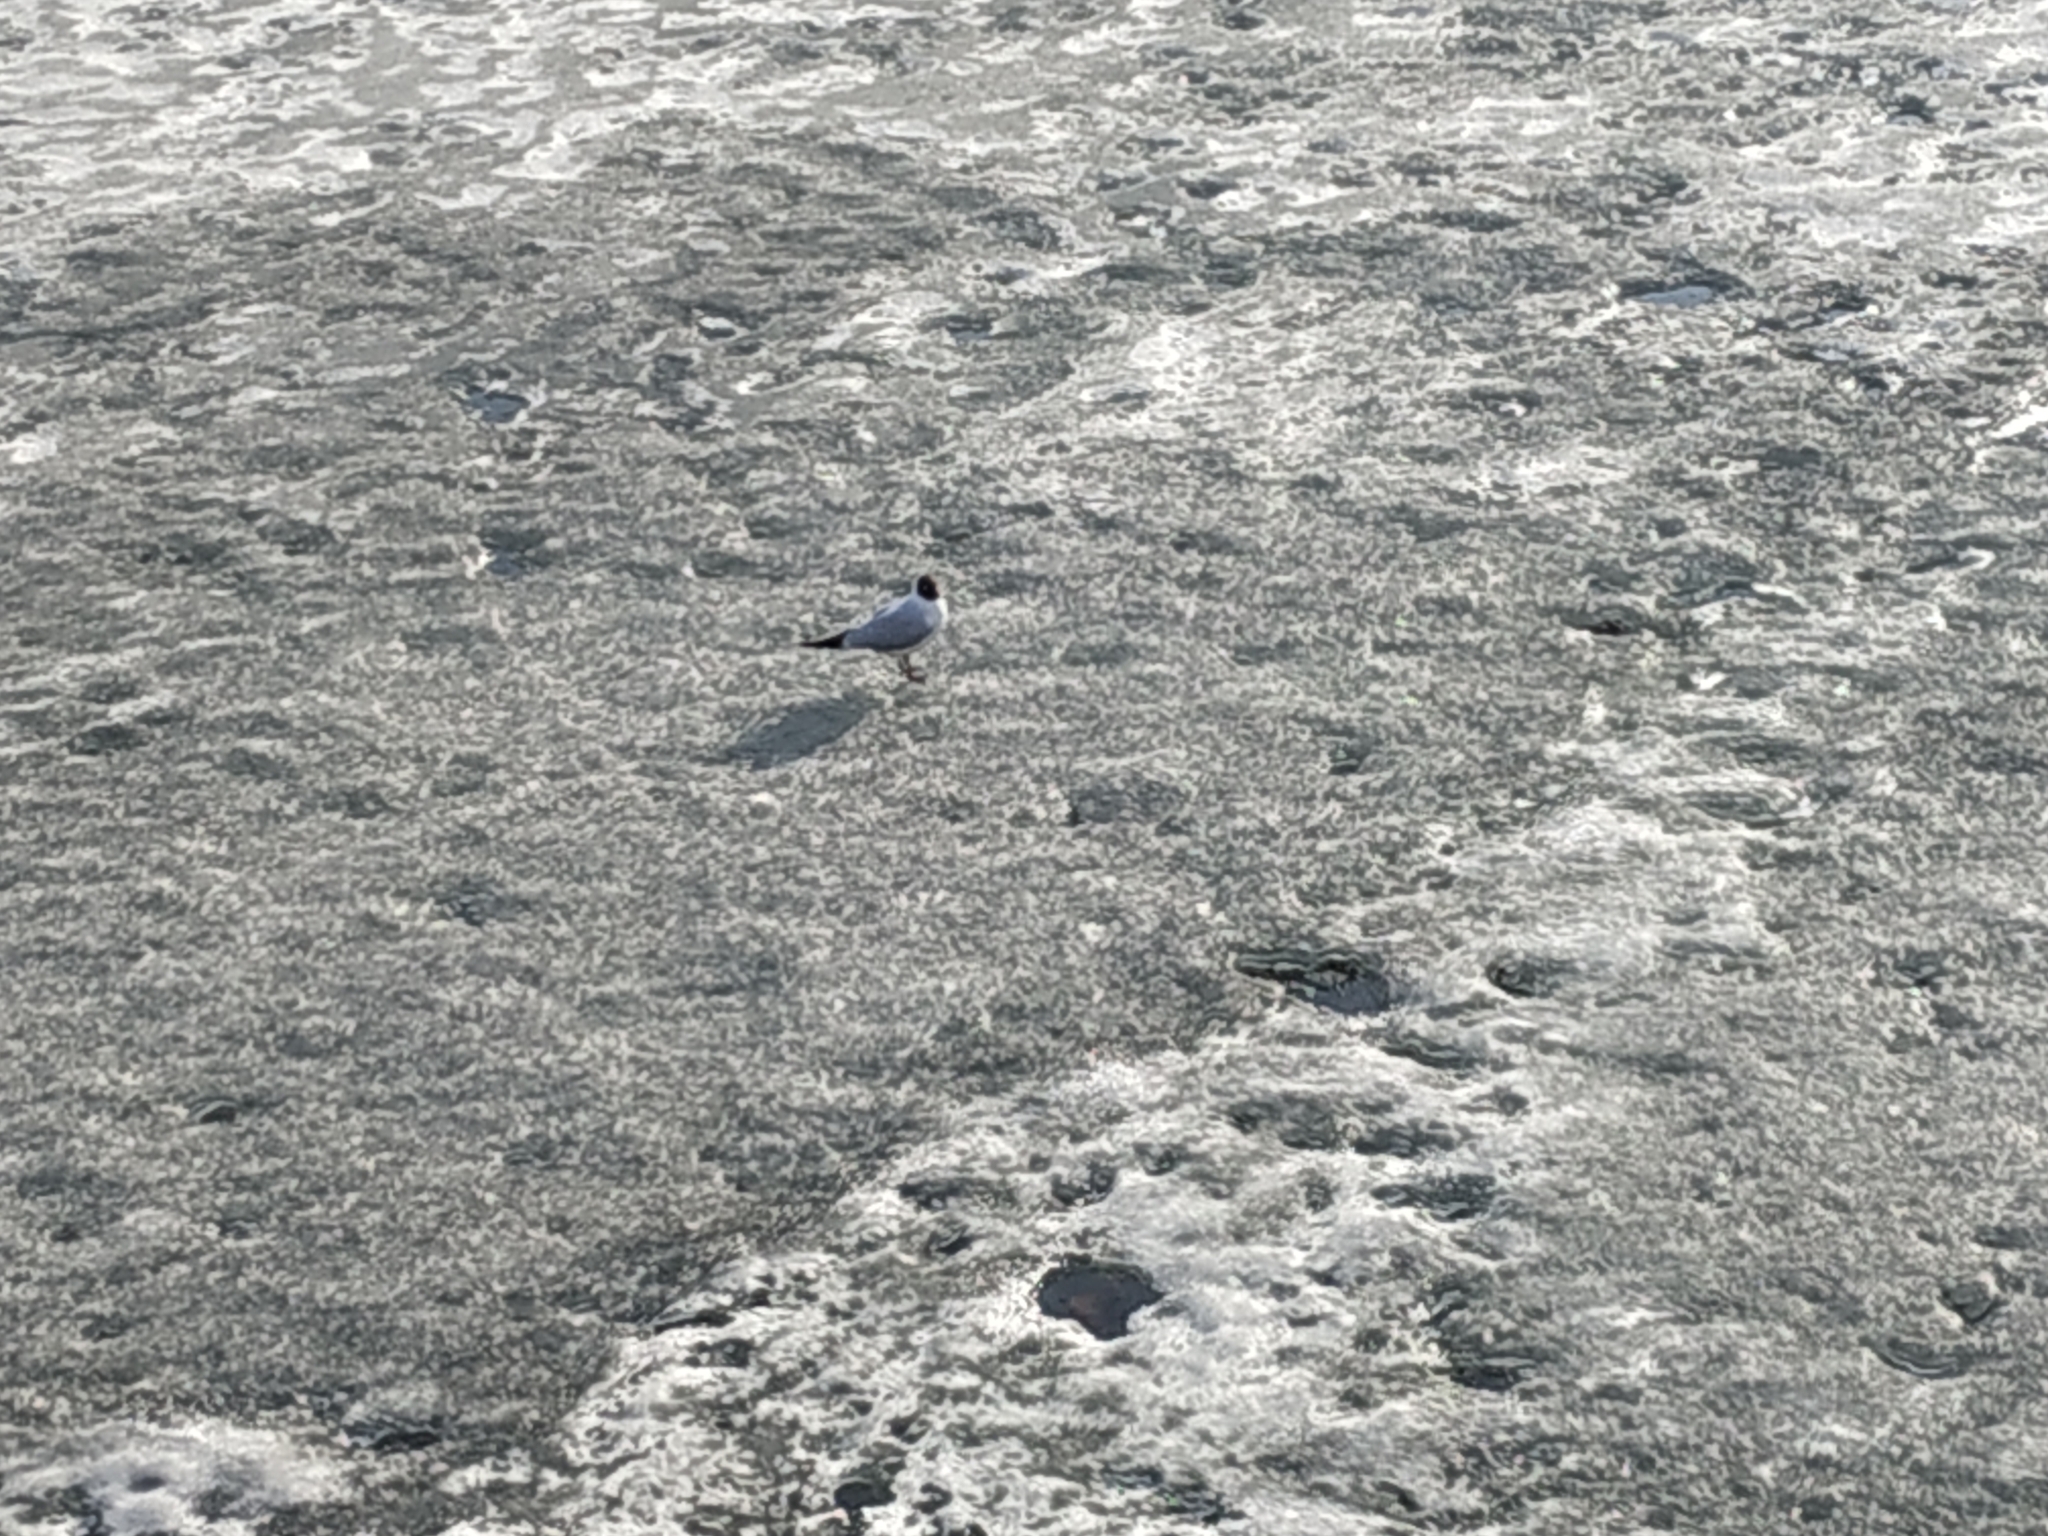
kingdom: Animalia
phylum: Chordata
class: Aves
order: Charadriiformes
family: Laridae
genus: Chroicocephalus
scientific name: Chroicocephalus ridibundus
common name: Black-headed gull
